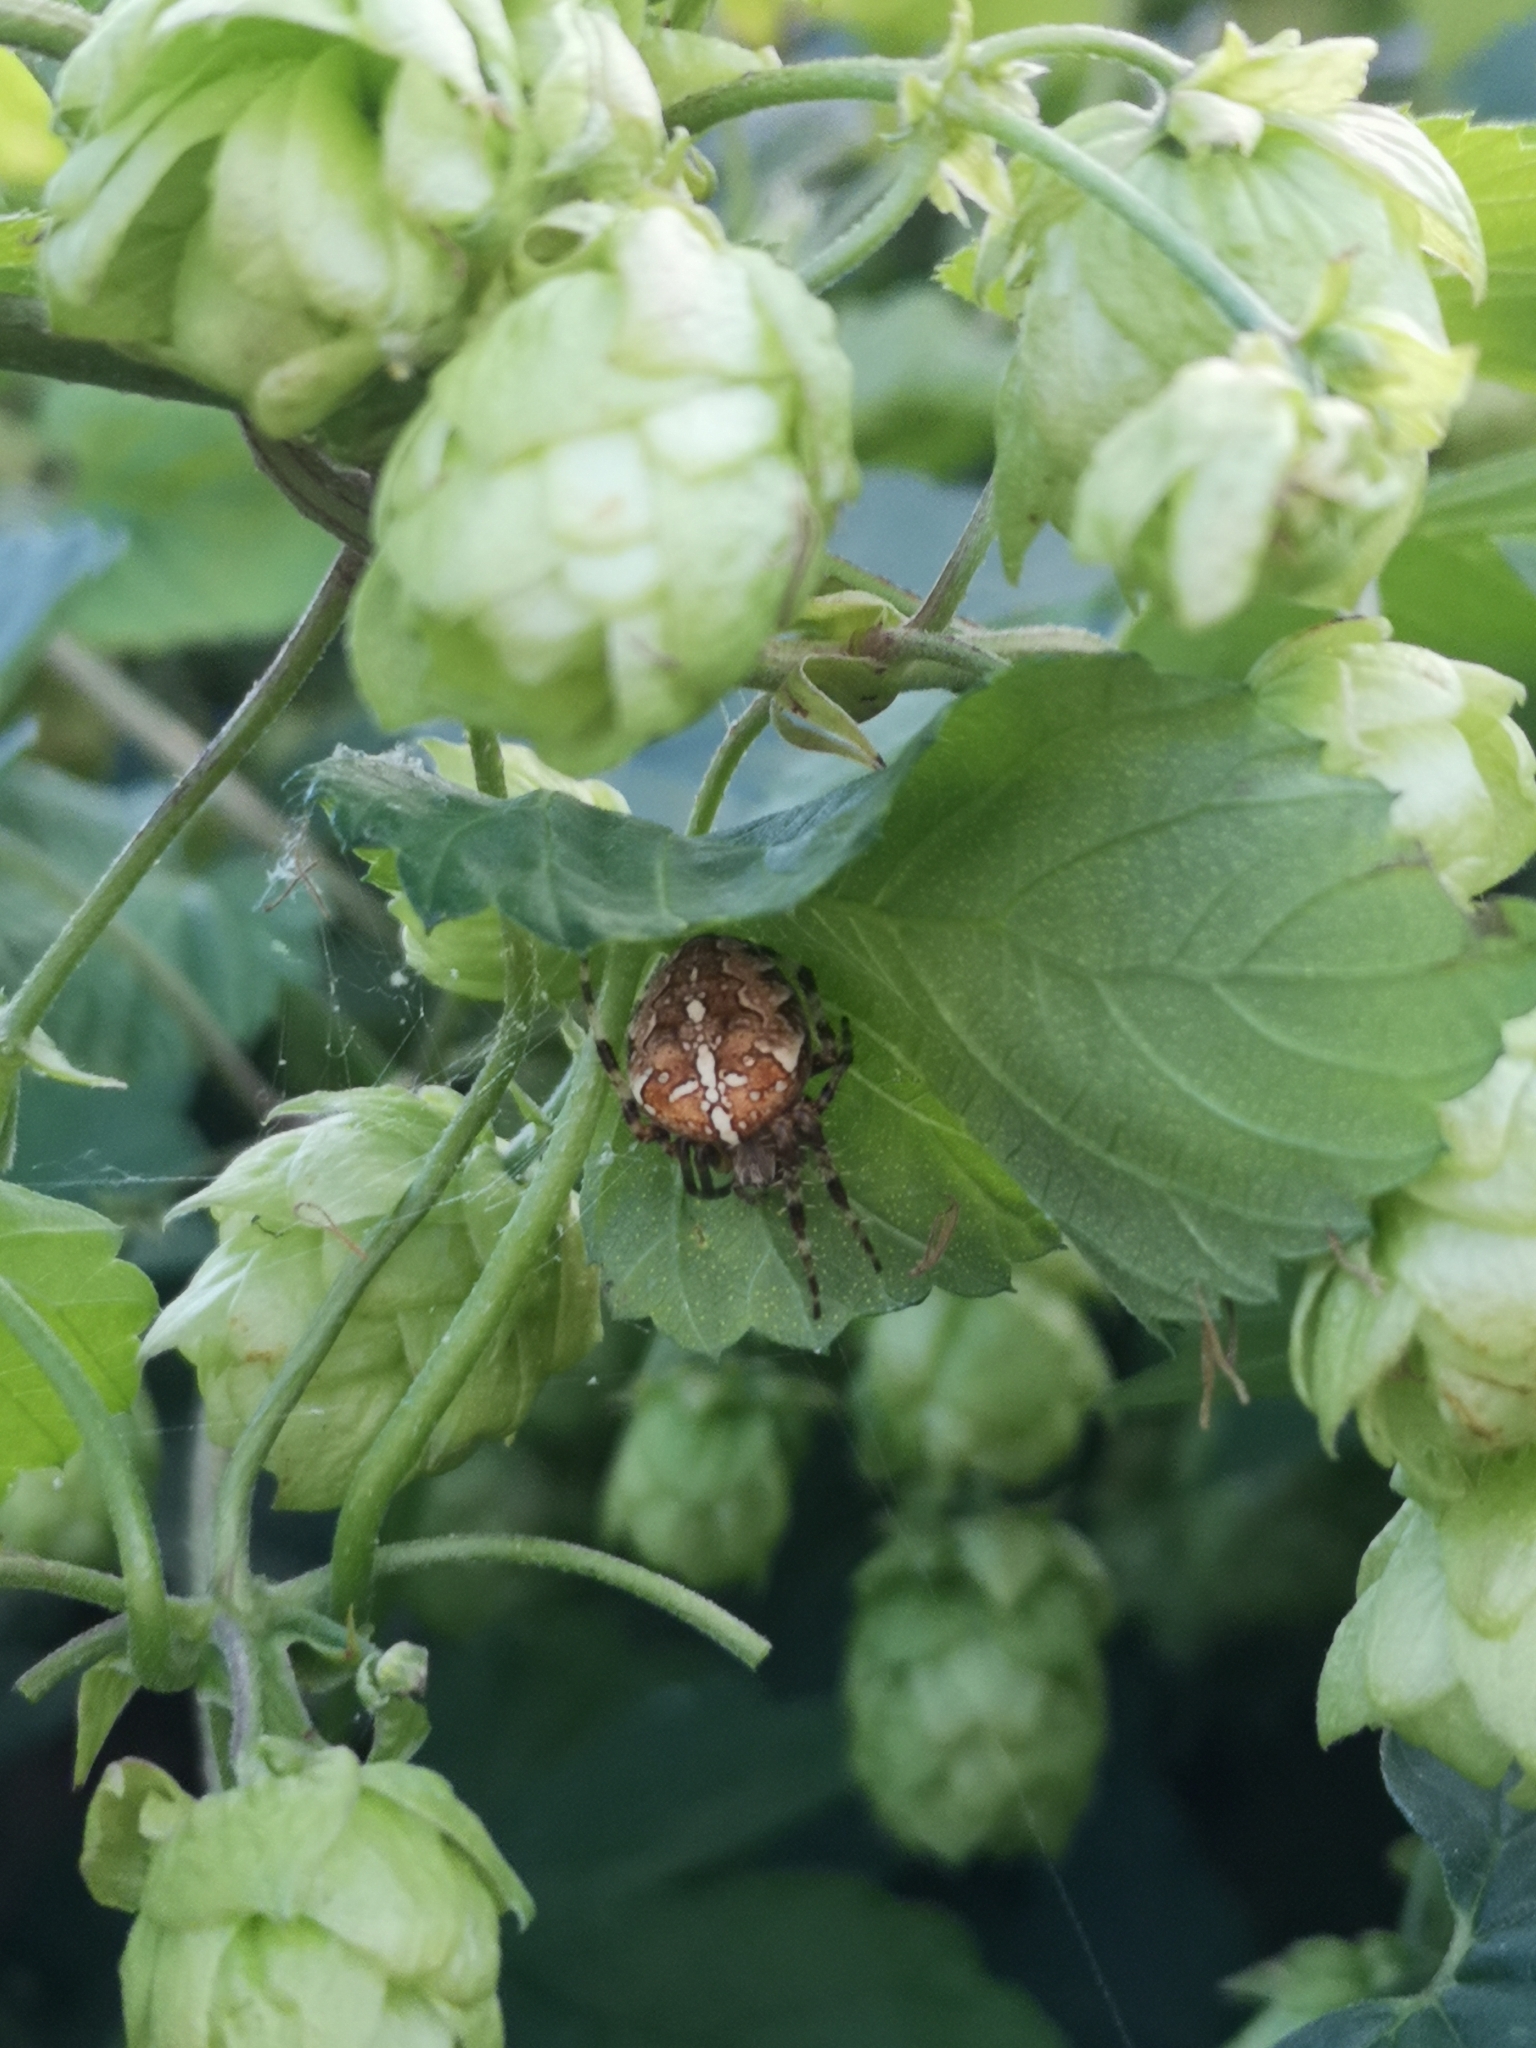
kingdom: Animalia
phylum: Arthropoda
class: Arachnida
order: Araneae
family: Araneidae
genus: Araneus
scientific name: Araneus diadematus
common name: Cross orbweaver
